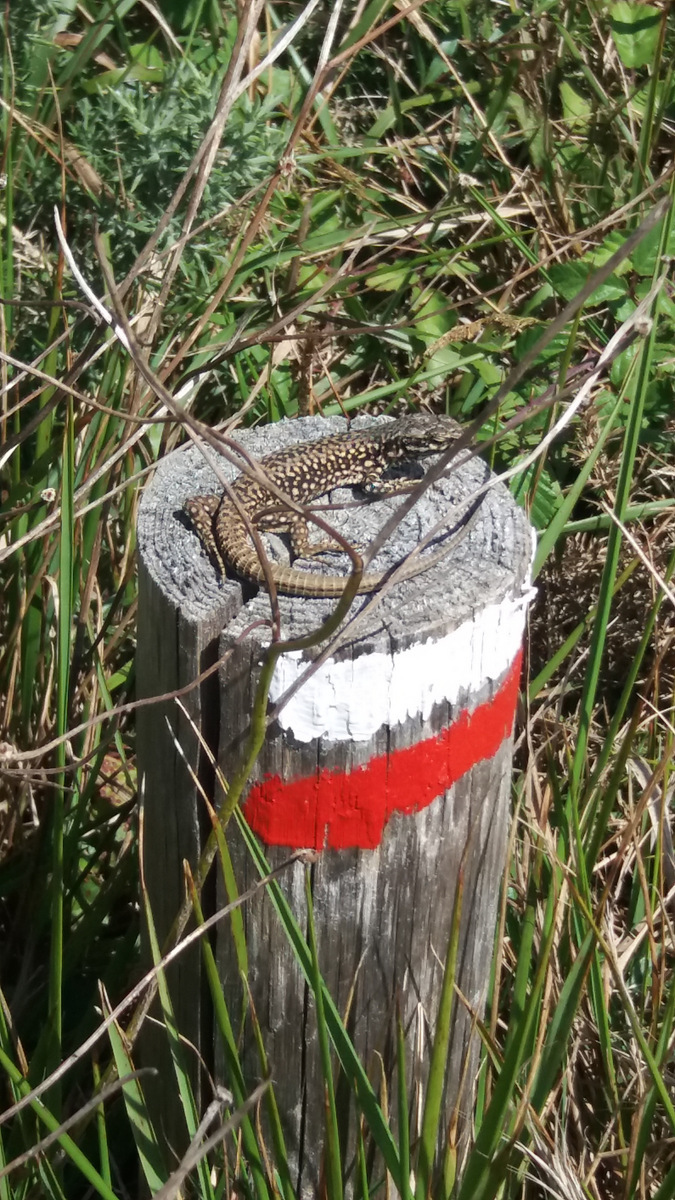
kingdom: Animalia
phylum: Chordata
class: Squamata
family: Lacertidae
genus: Podarcis
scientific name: Podarcis muralis
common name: Common wall lizard
